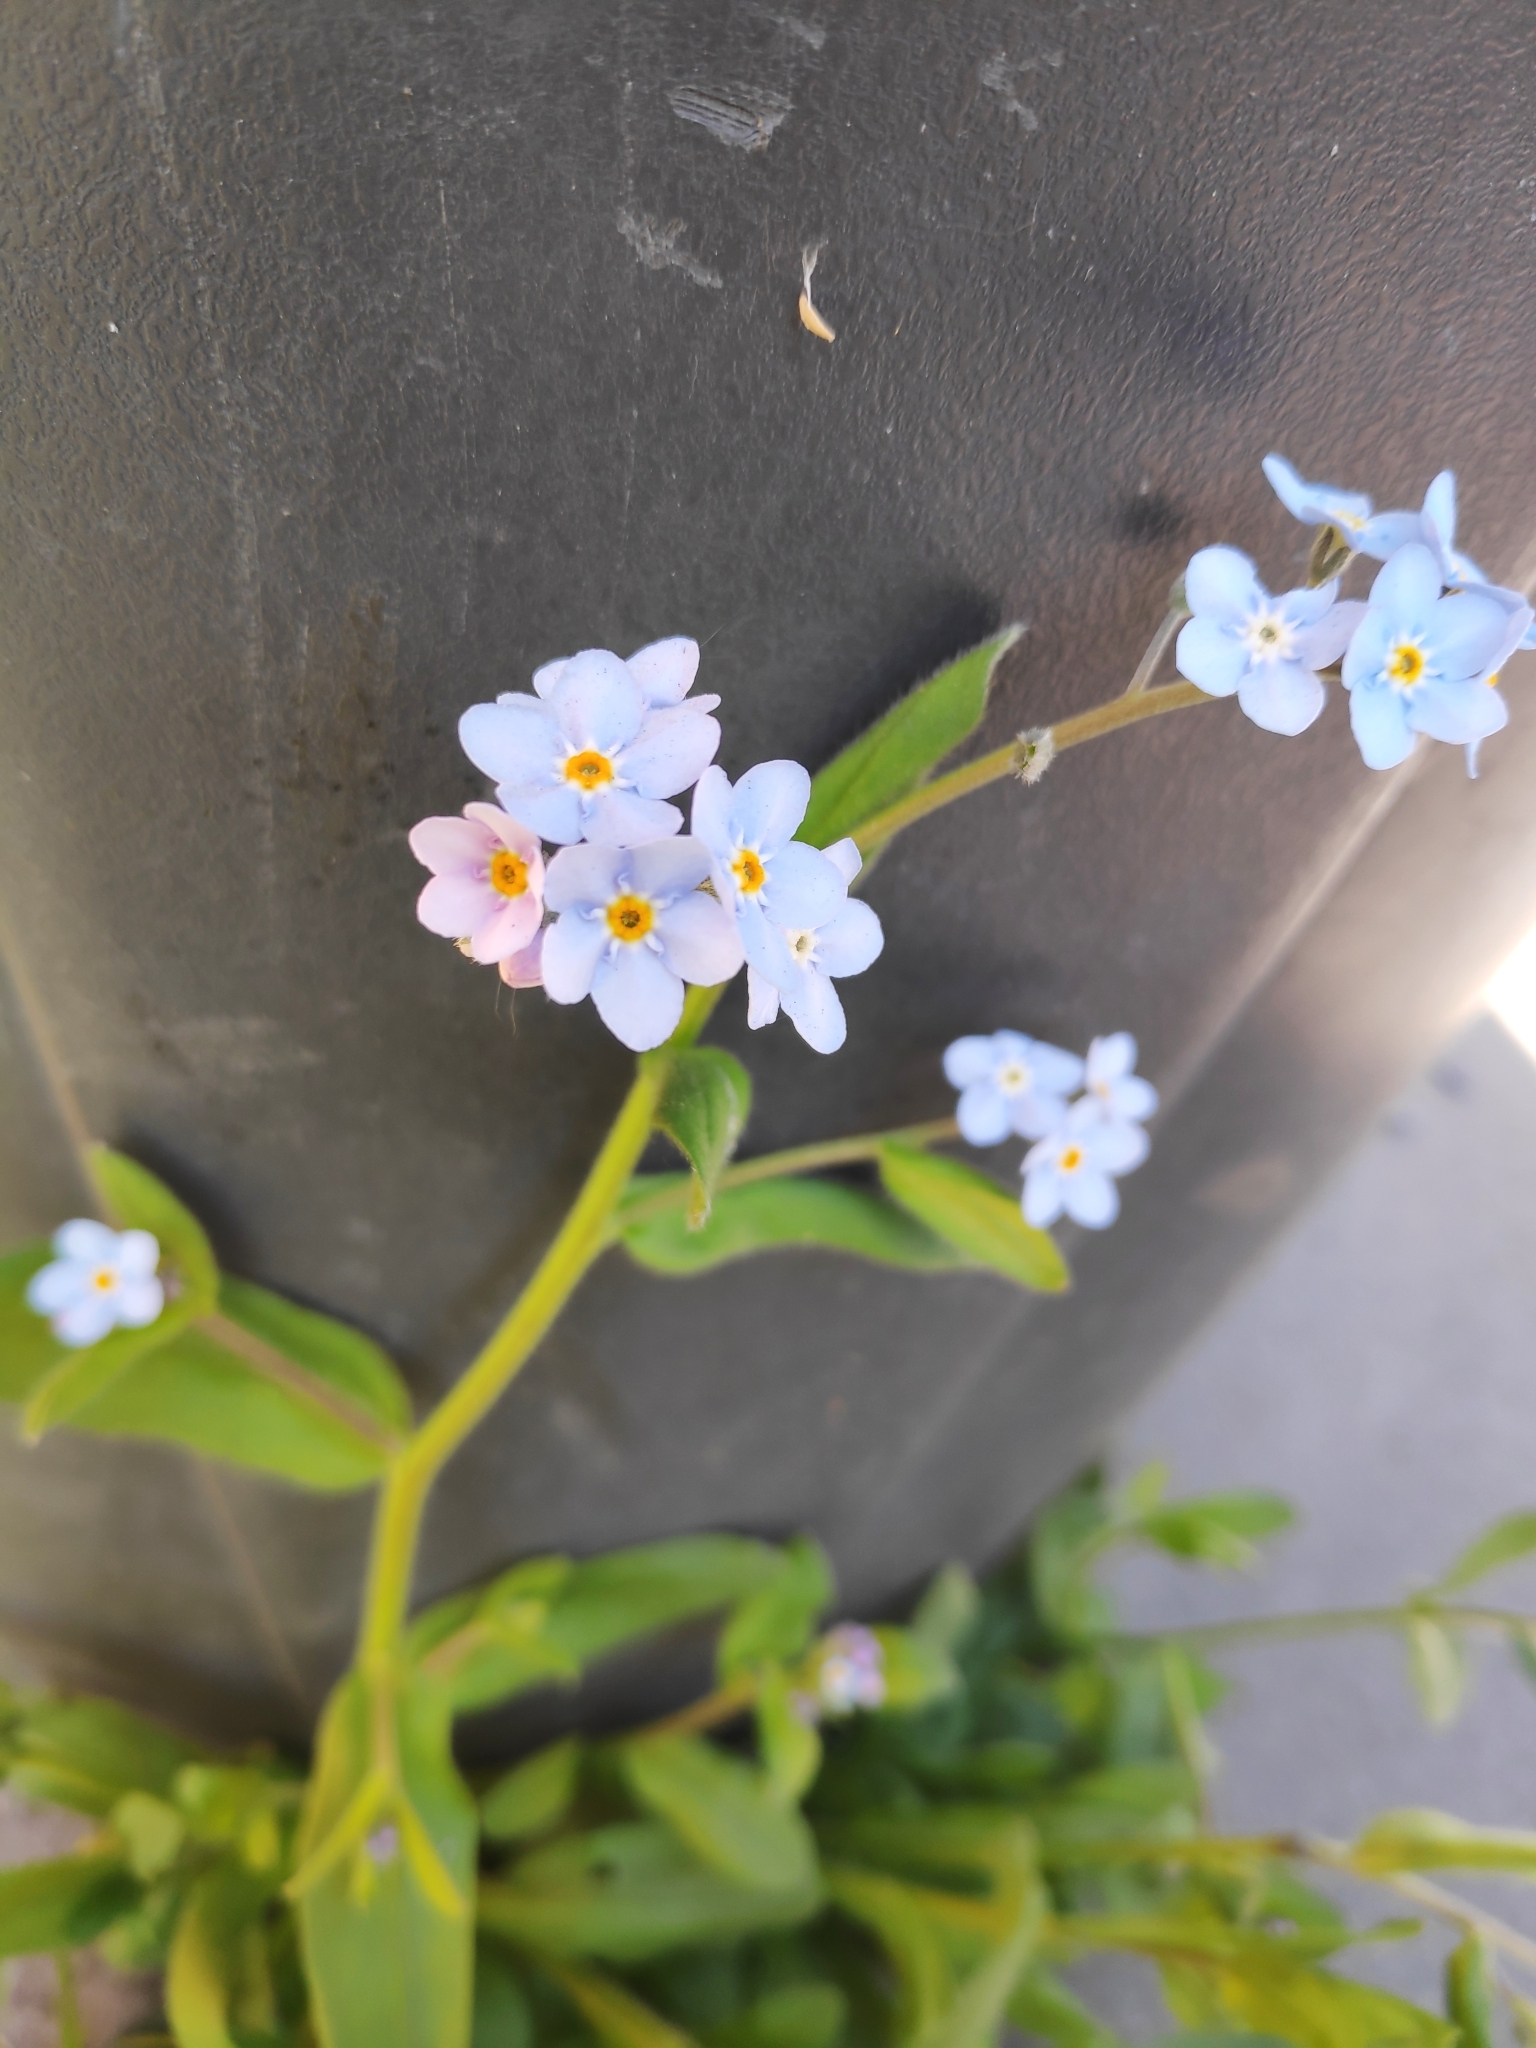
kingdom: Plantae
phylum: Tracheophyta
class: Magnoliopsida
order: Boraginales
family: Boraginaceae
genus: Myosotis
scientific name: Myosotis sylvatica
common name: Wood forget-me-not
